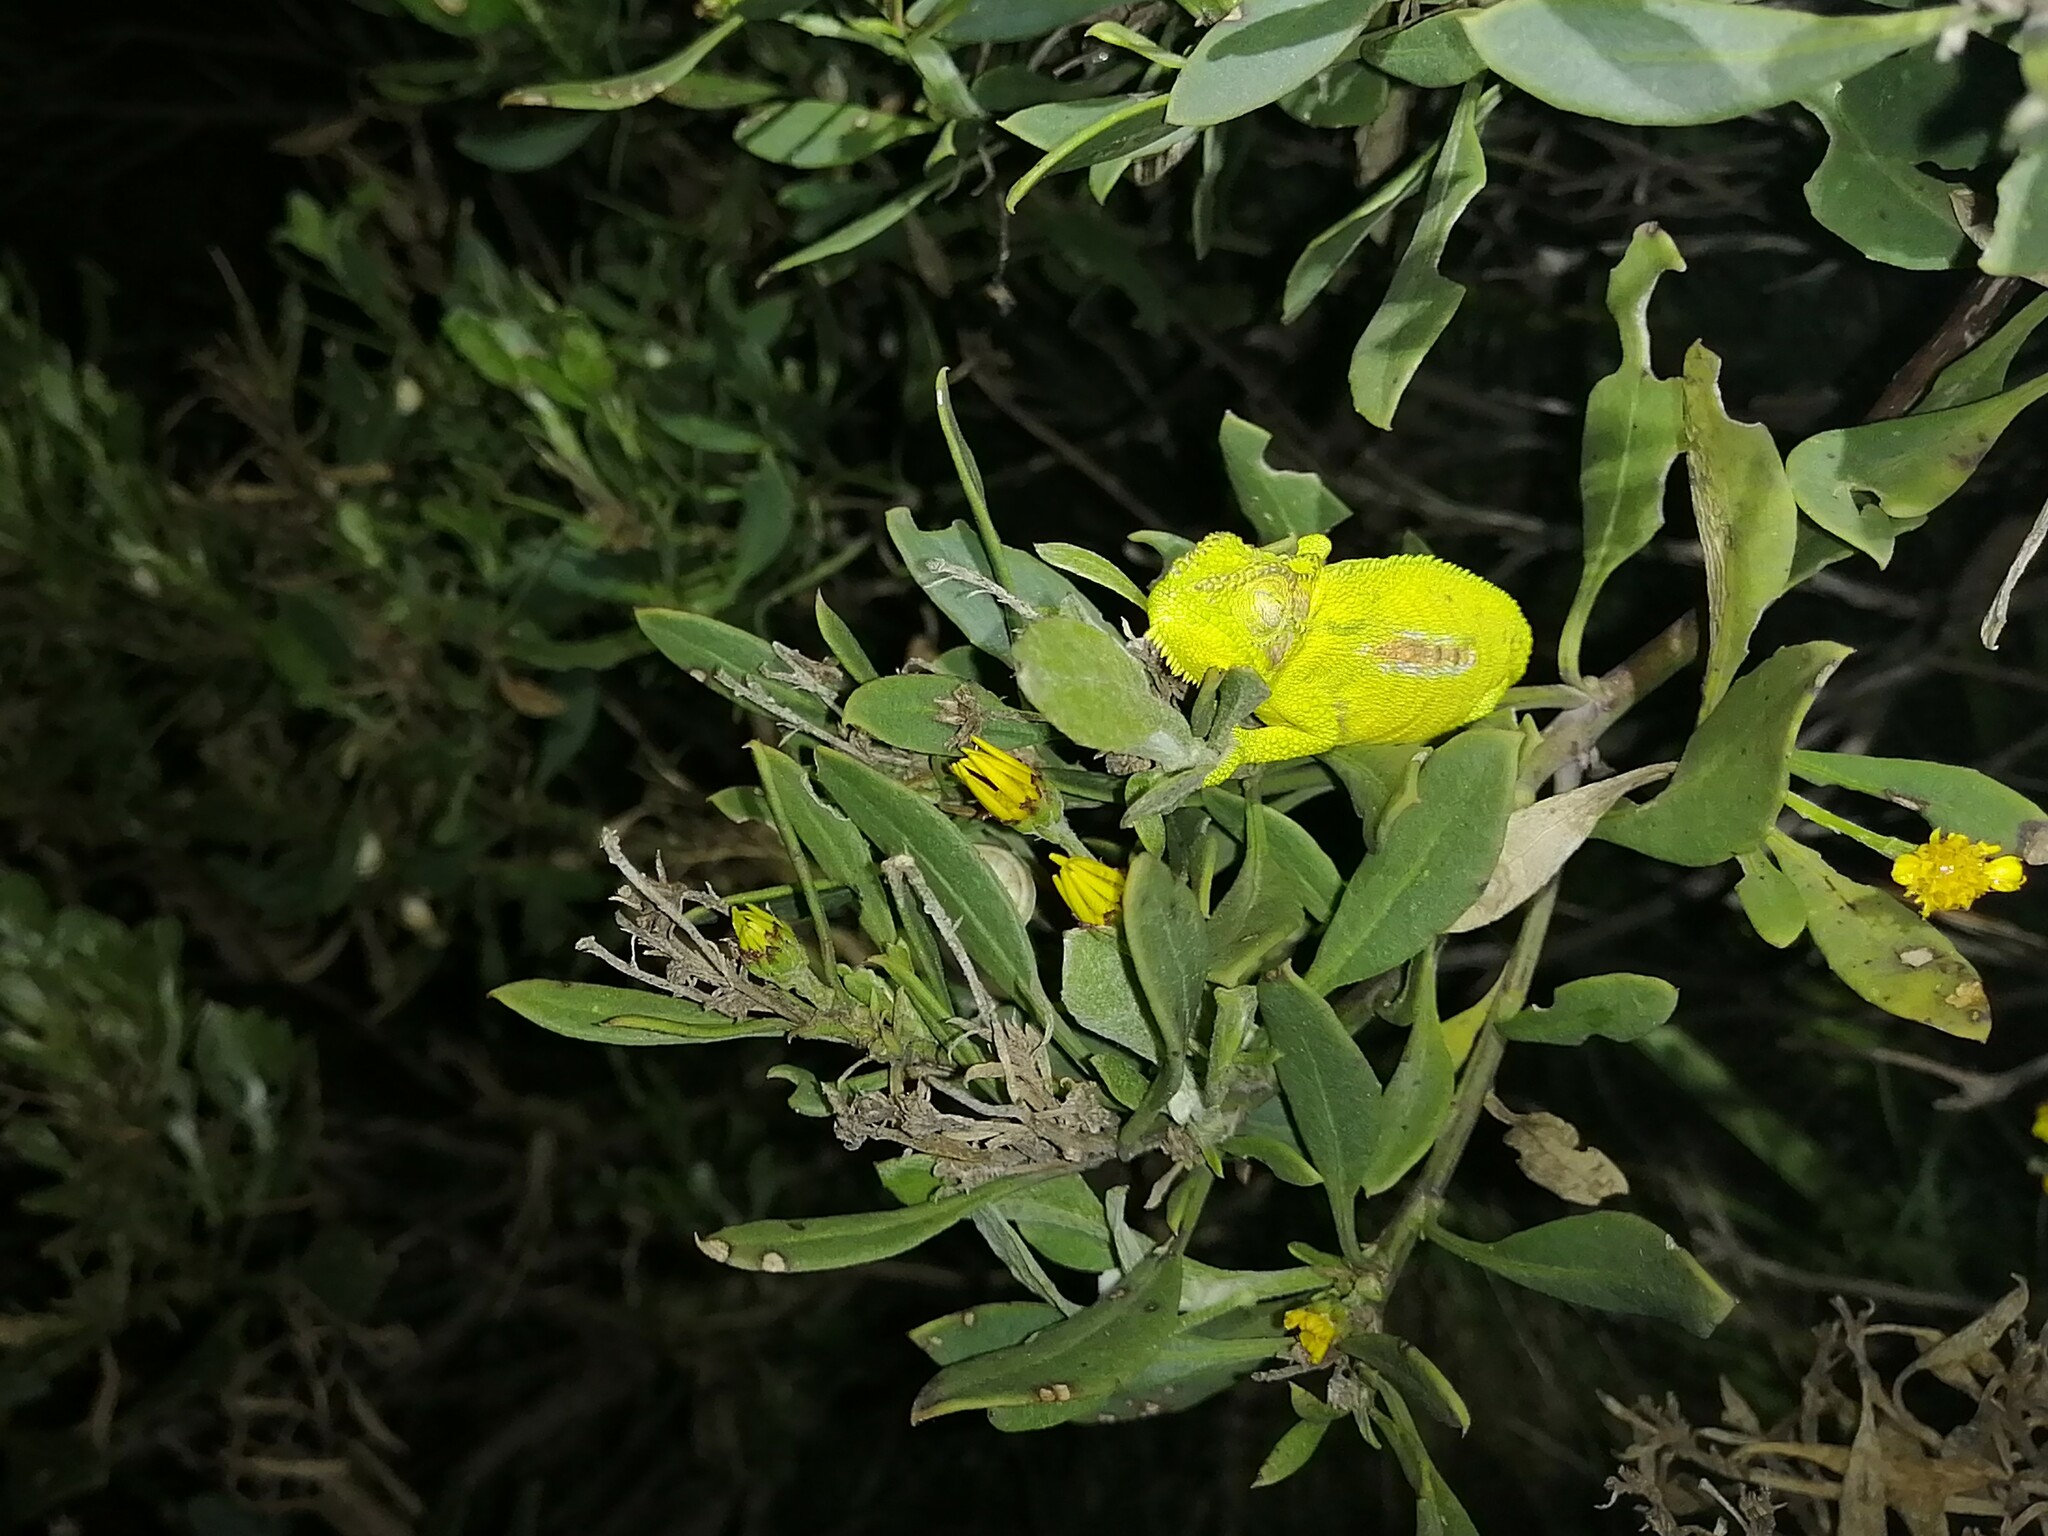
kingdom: Animalia
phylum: Chordata
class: Squamata
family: Chamaeleonidae
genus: Bradypodion
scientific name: Bradypodion pumilum
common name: Cape dwarf chameleon
